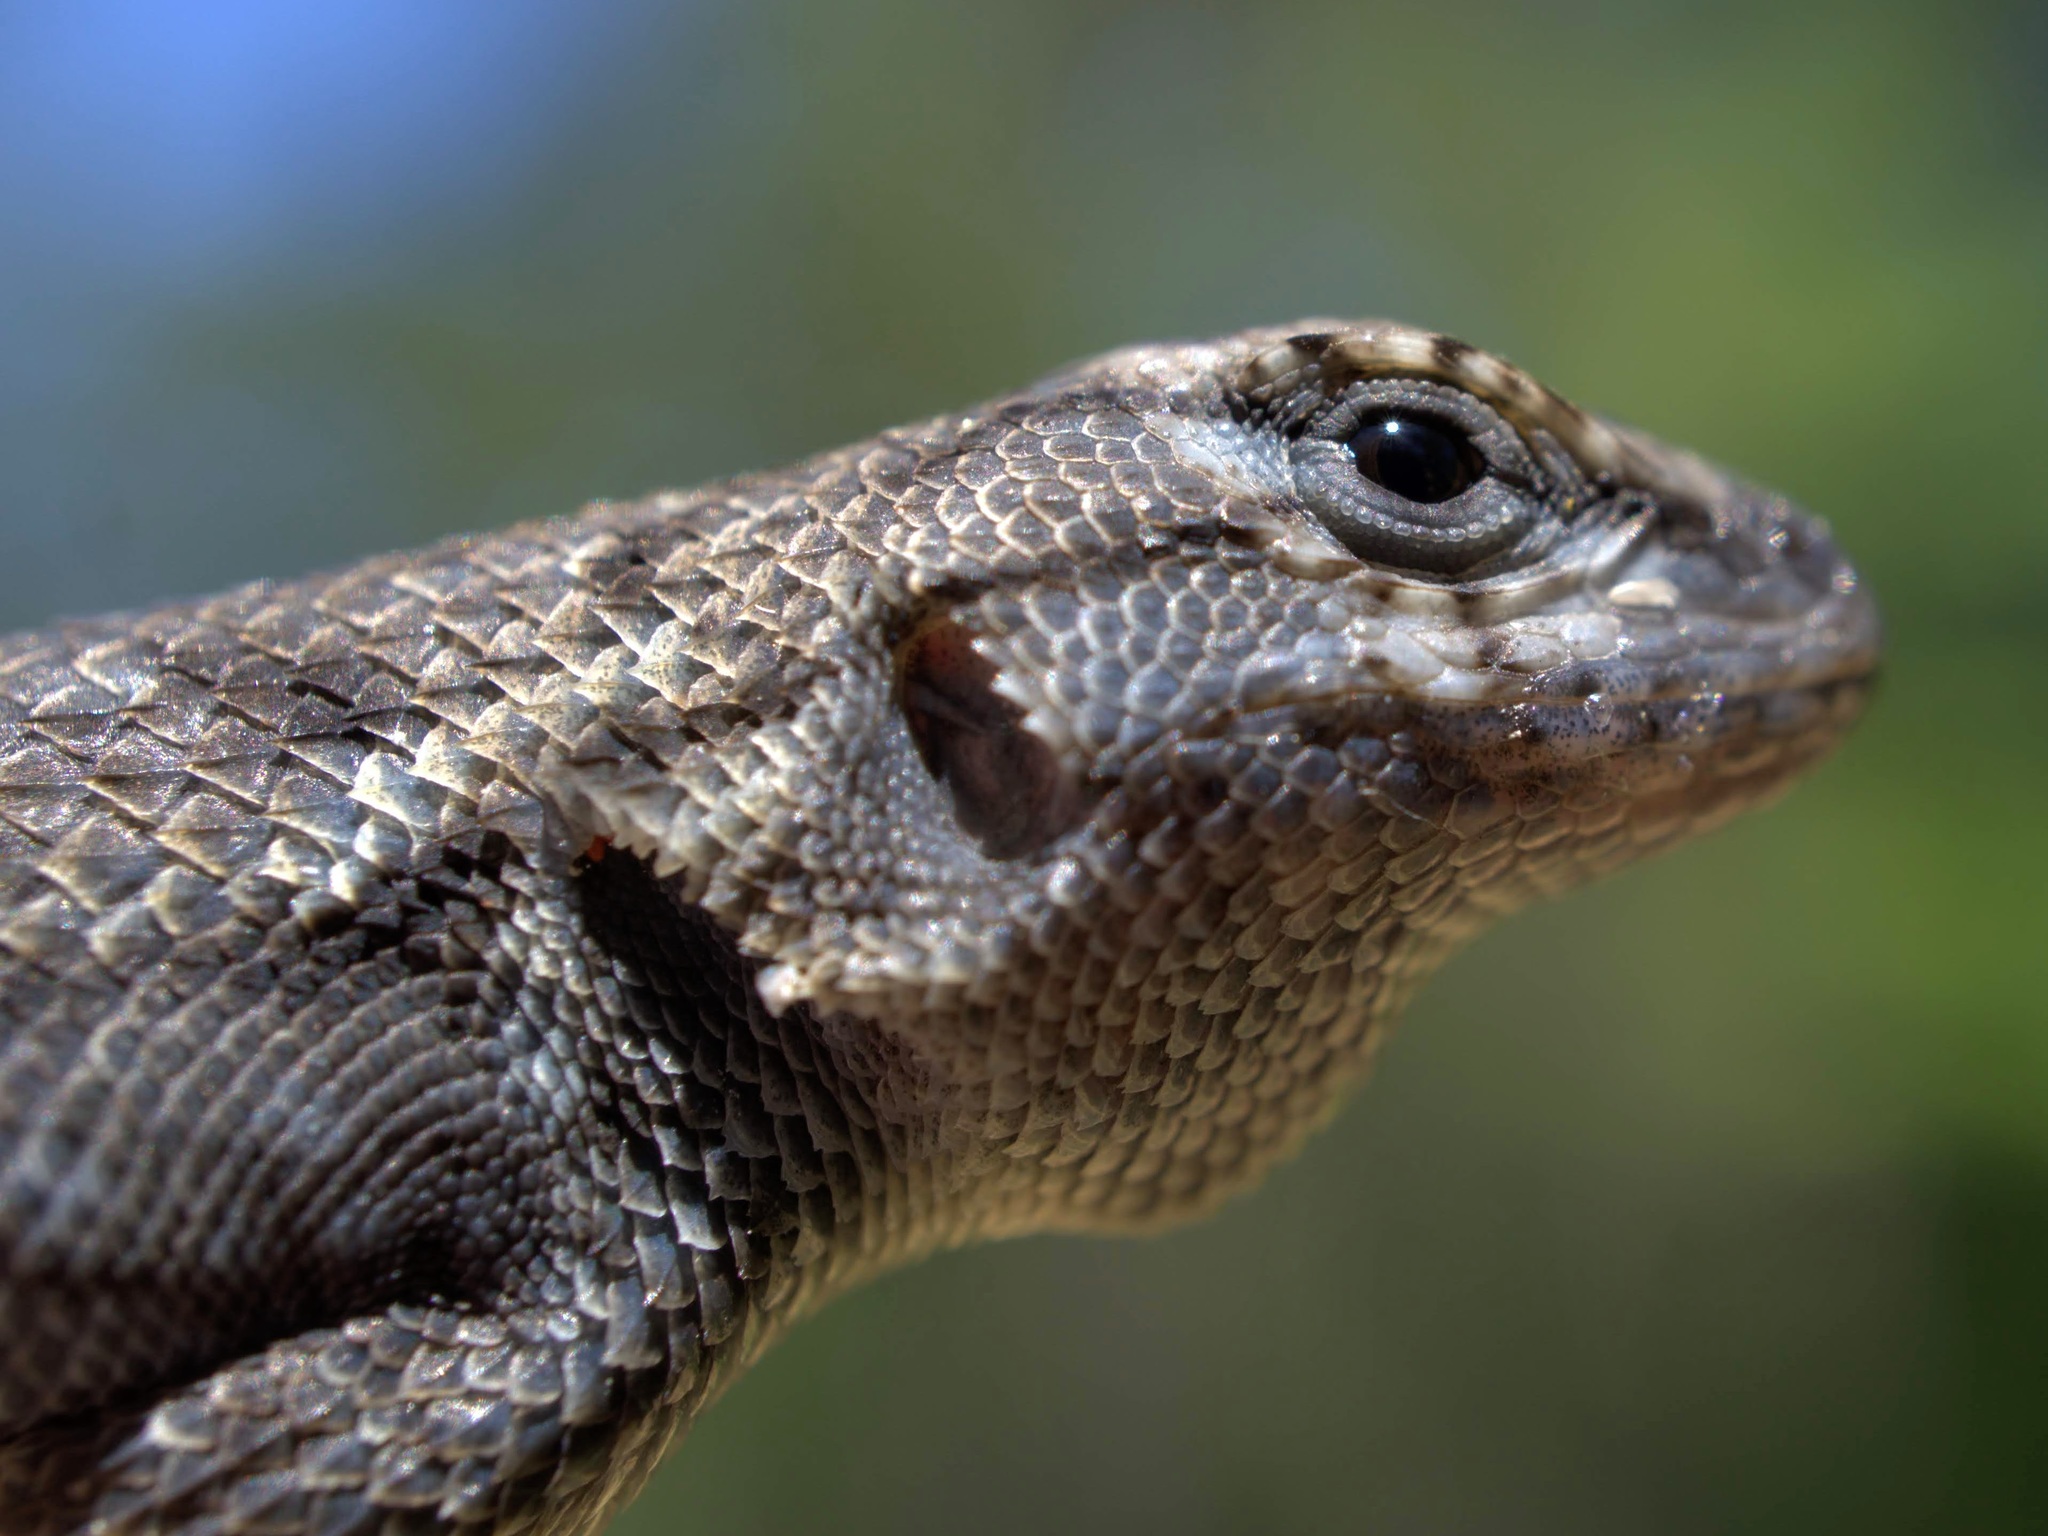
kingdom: Animalia
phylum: Chordata
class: Squamata
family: Phrynosomatidae
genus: Sceloporus
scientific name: Sceloporus consobrinus
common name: Southern prairie lizard
